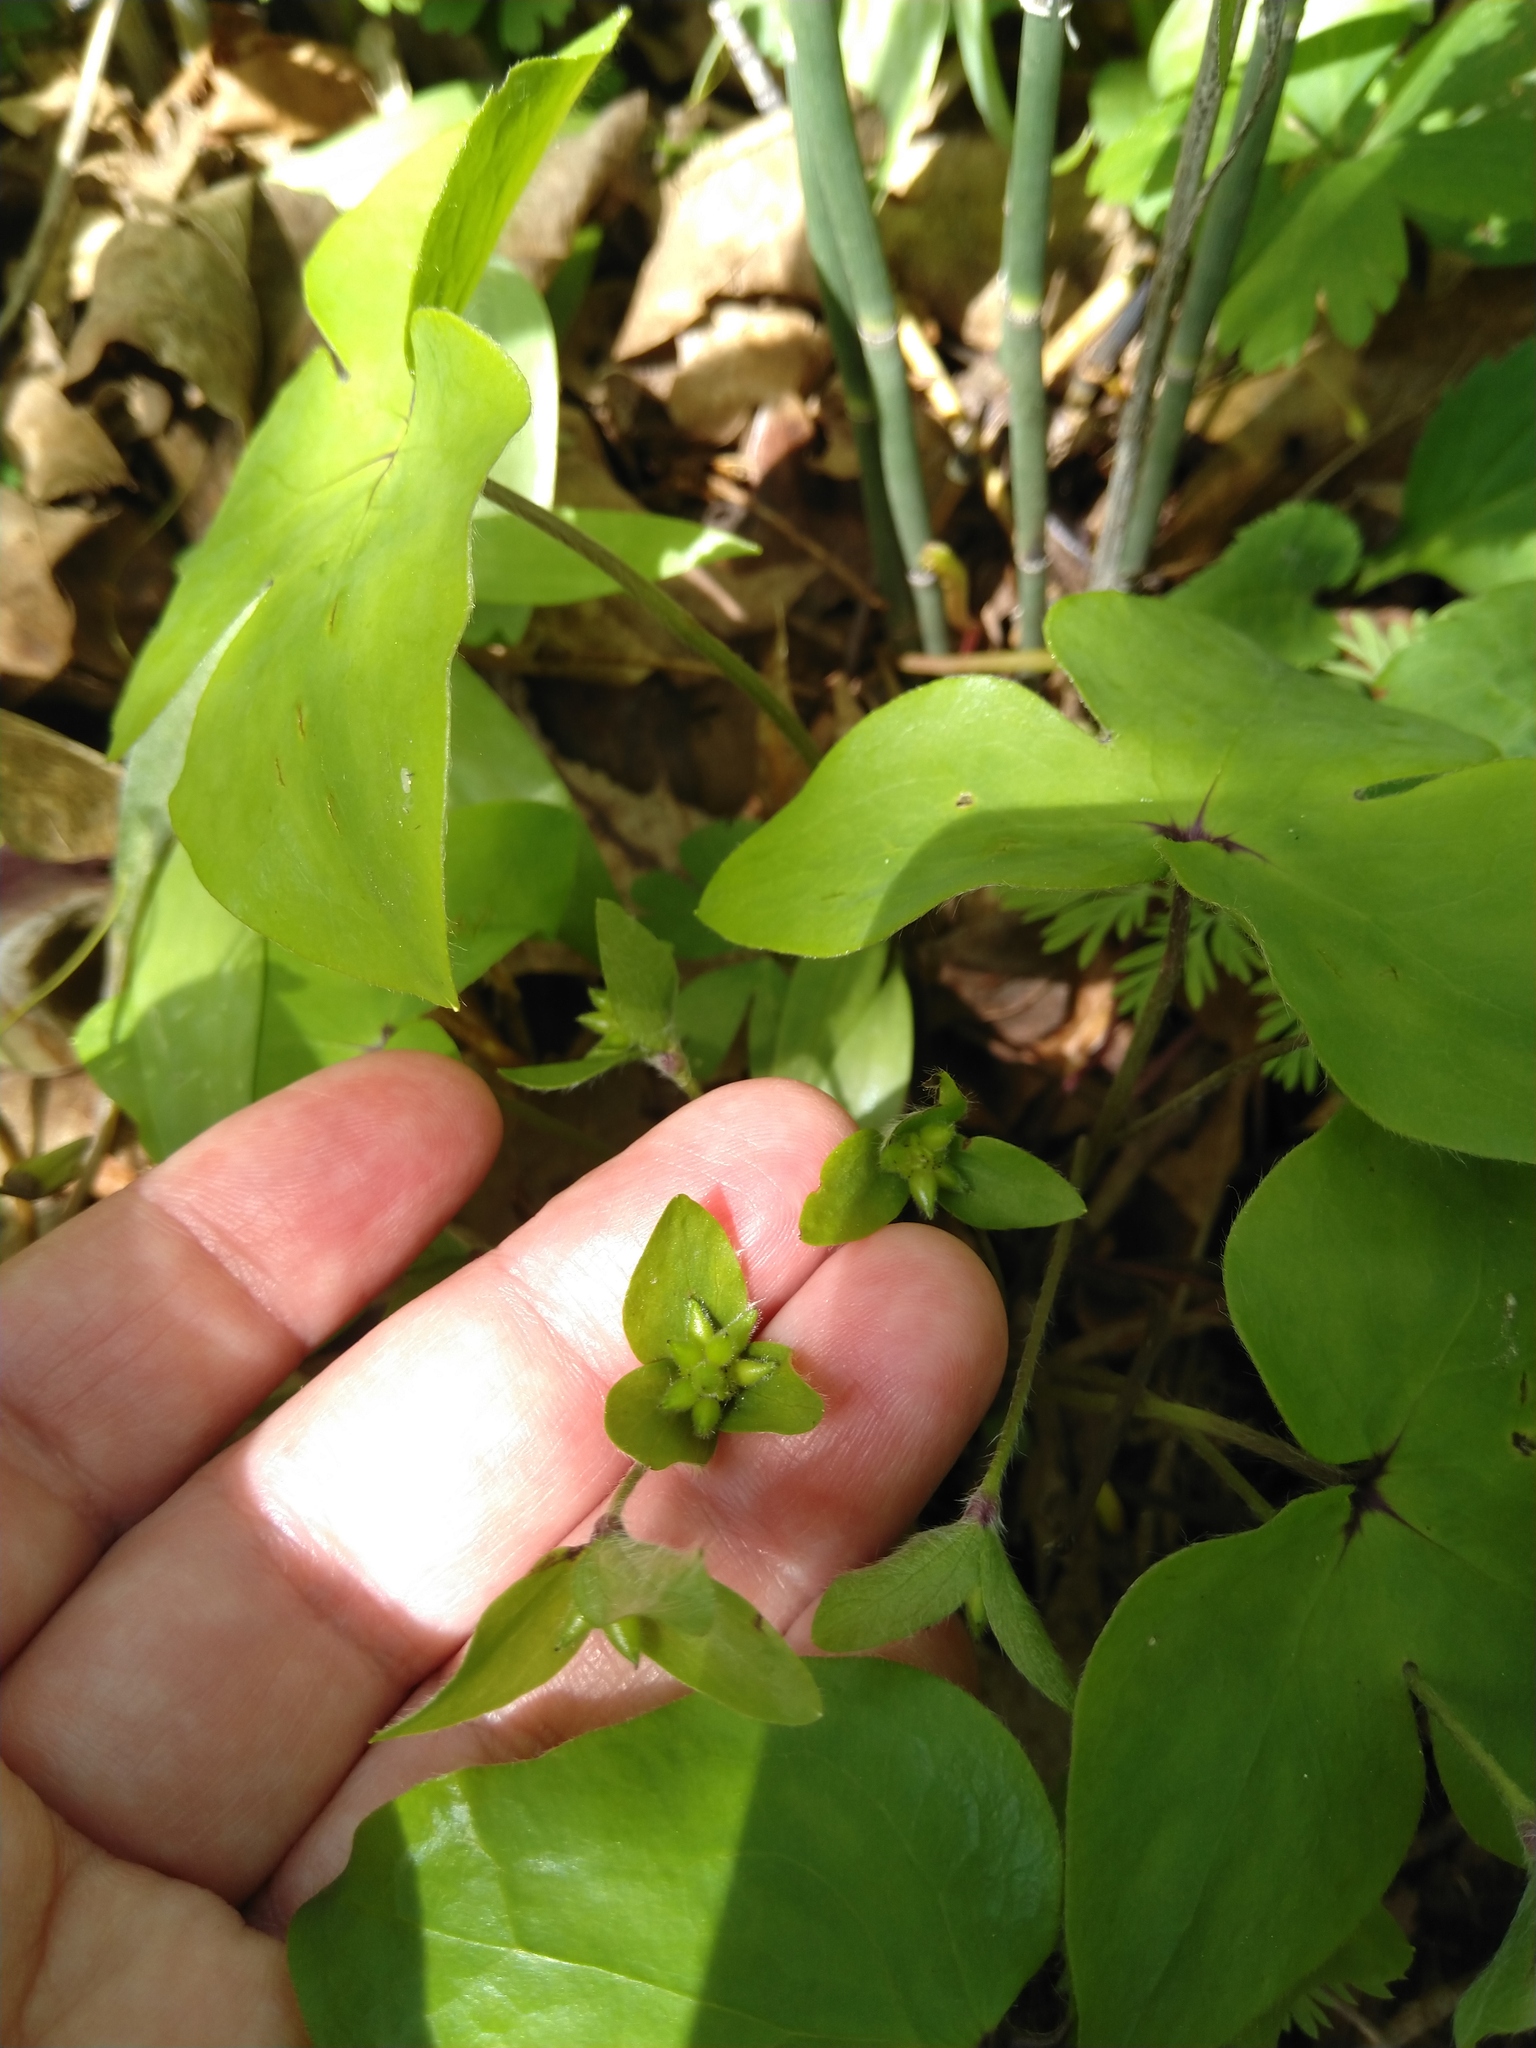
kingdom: Plantae
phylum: Tracheophyta
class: Magnoliopsida
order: Ranunculales
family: Ranunculaceae
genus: Hepatica
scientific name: Hepatica acutiloba
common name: Sharp-lobed hepatica
